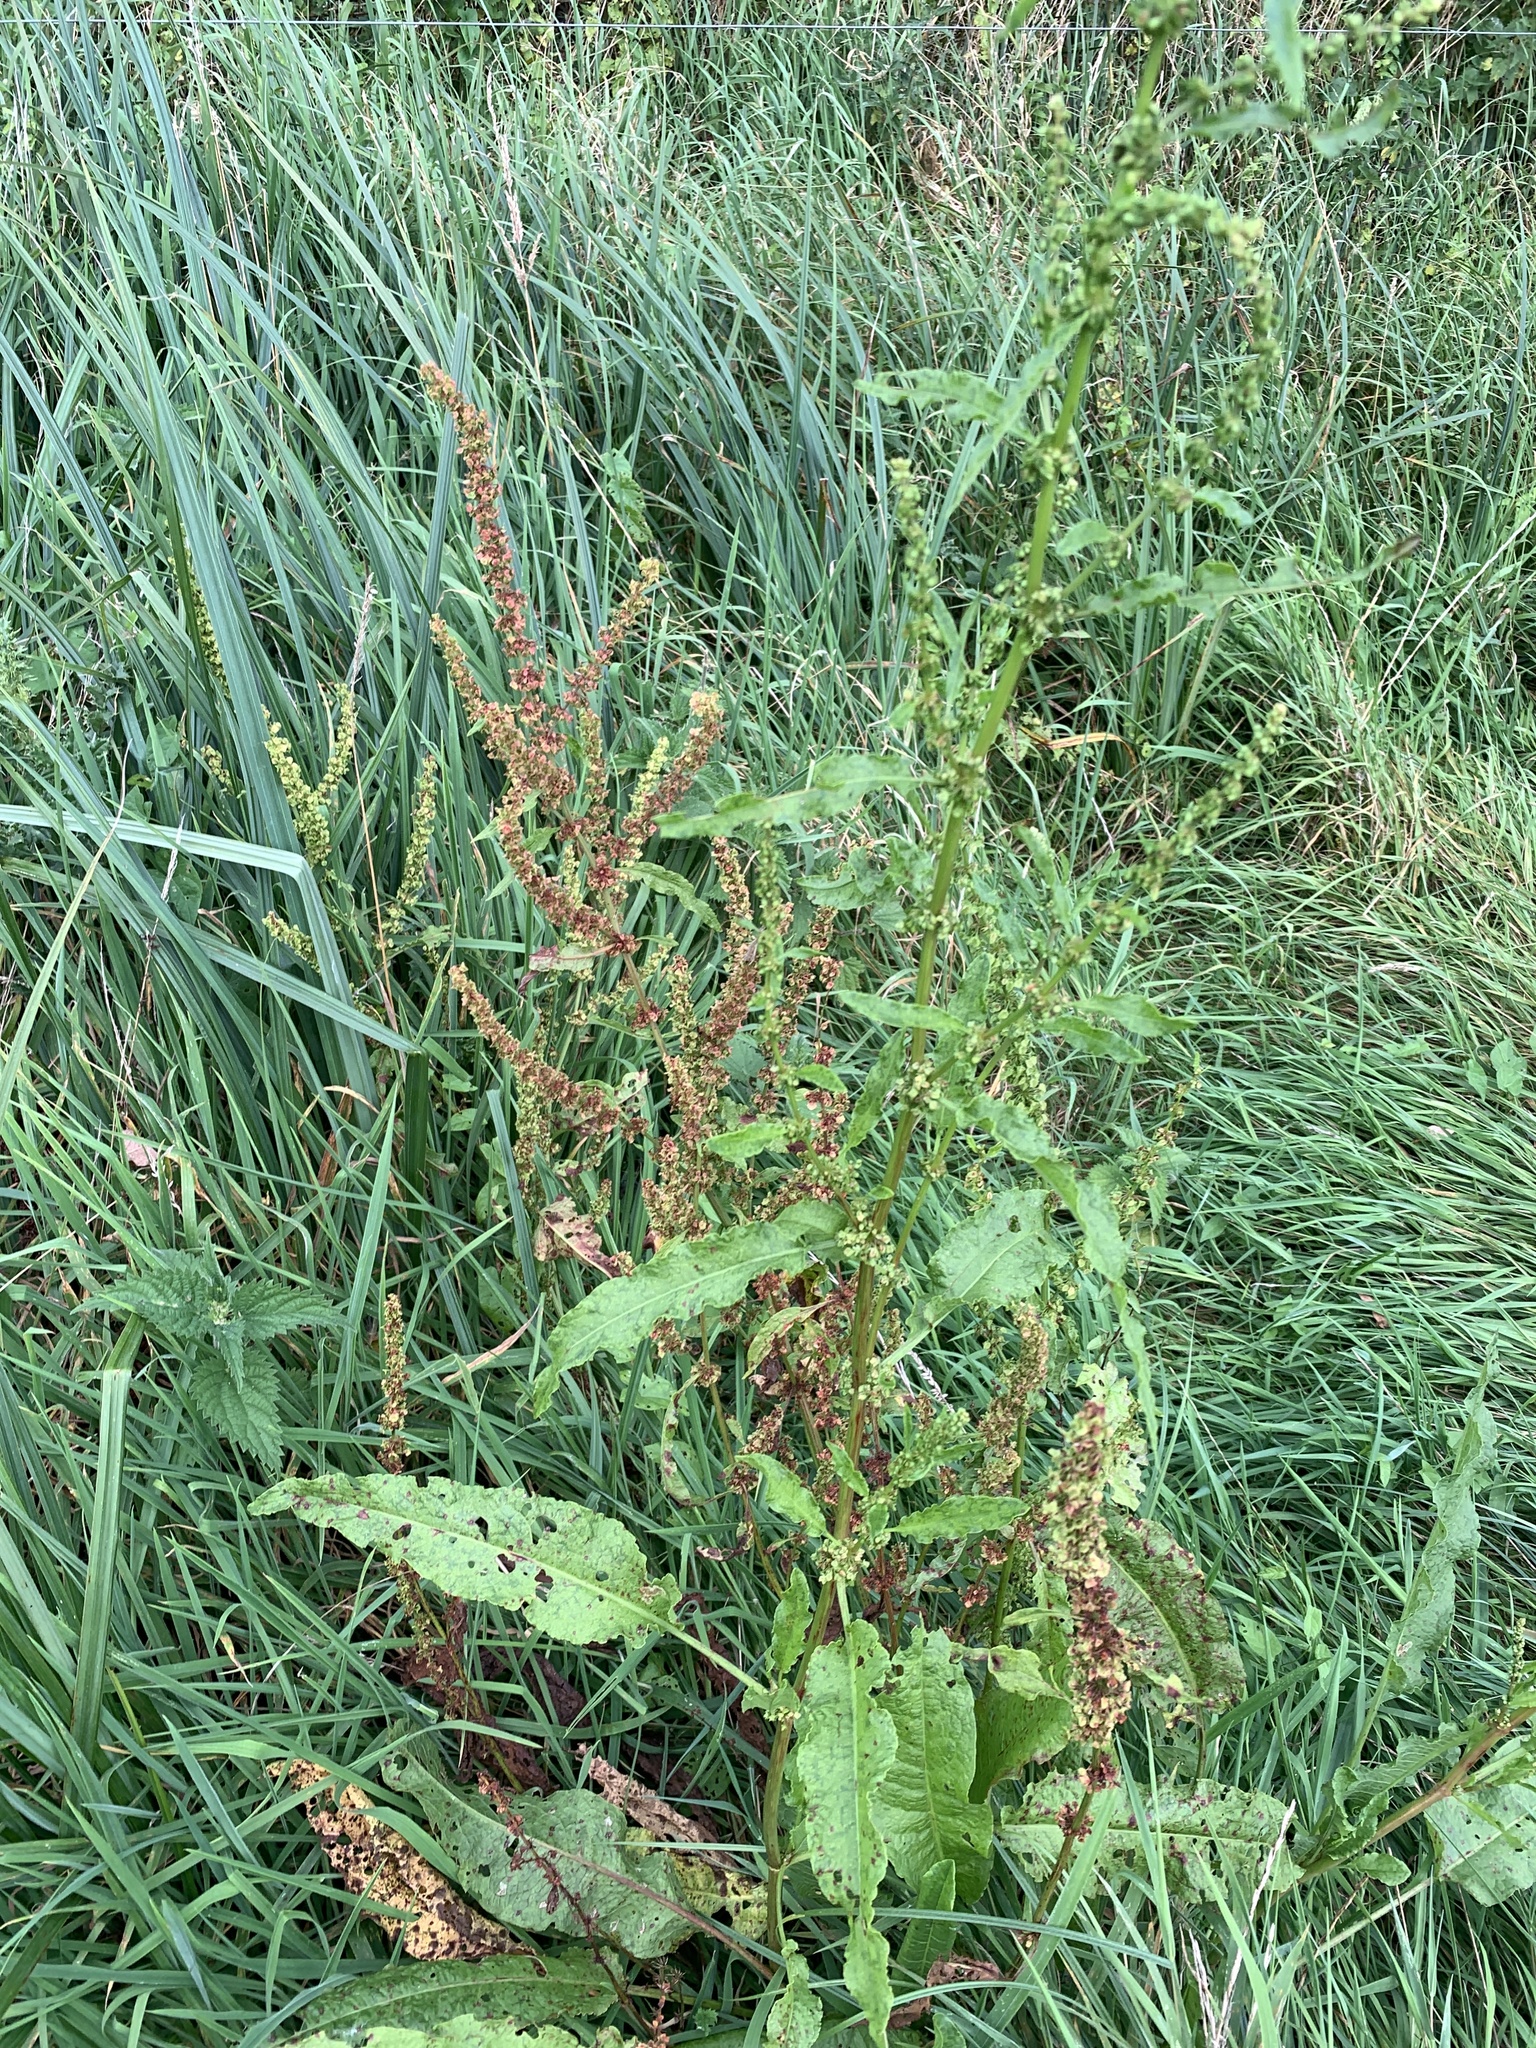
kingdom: Plantae
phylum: Tracheophyta
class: Magnoliopsida
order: Caryophyllales
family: Polygonaceae
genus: Rumex
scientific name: Rumex obtusifolius
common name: Bitter dock
